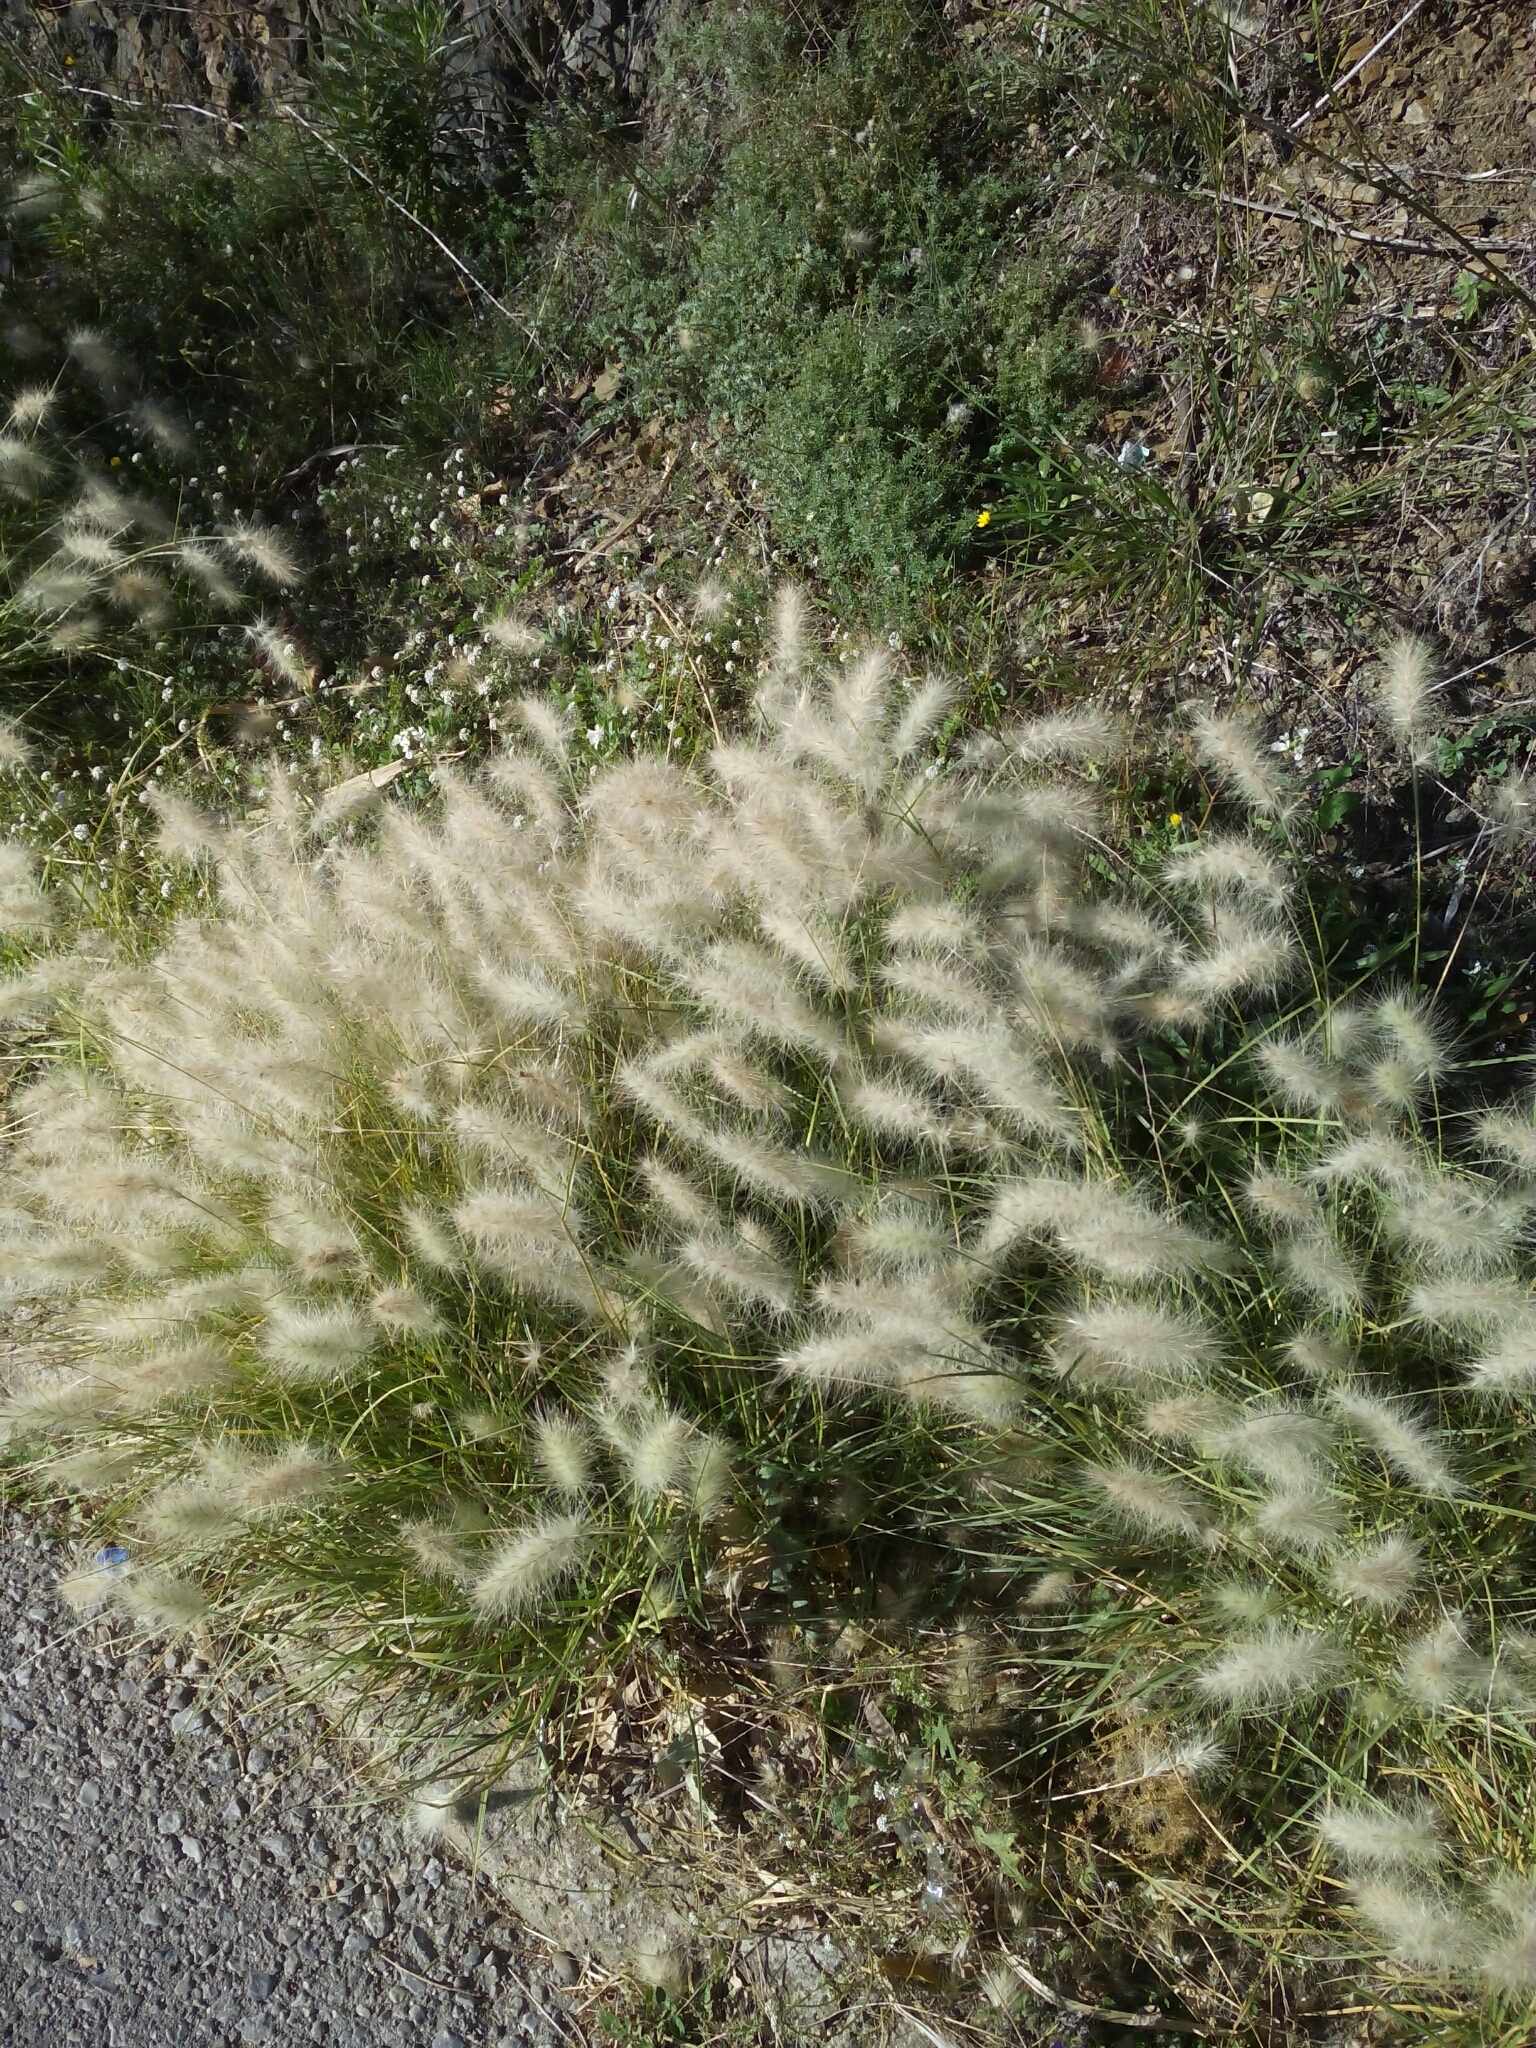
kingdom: Plantae
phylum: Tracheophyta
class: Liliopsida
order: Poales
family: Poaceae
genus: Cenchrus
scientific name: Cenchrus longisetus
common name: Feathertop
